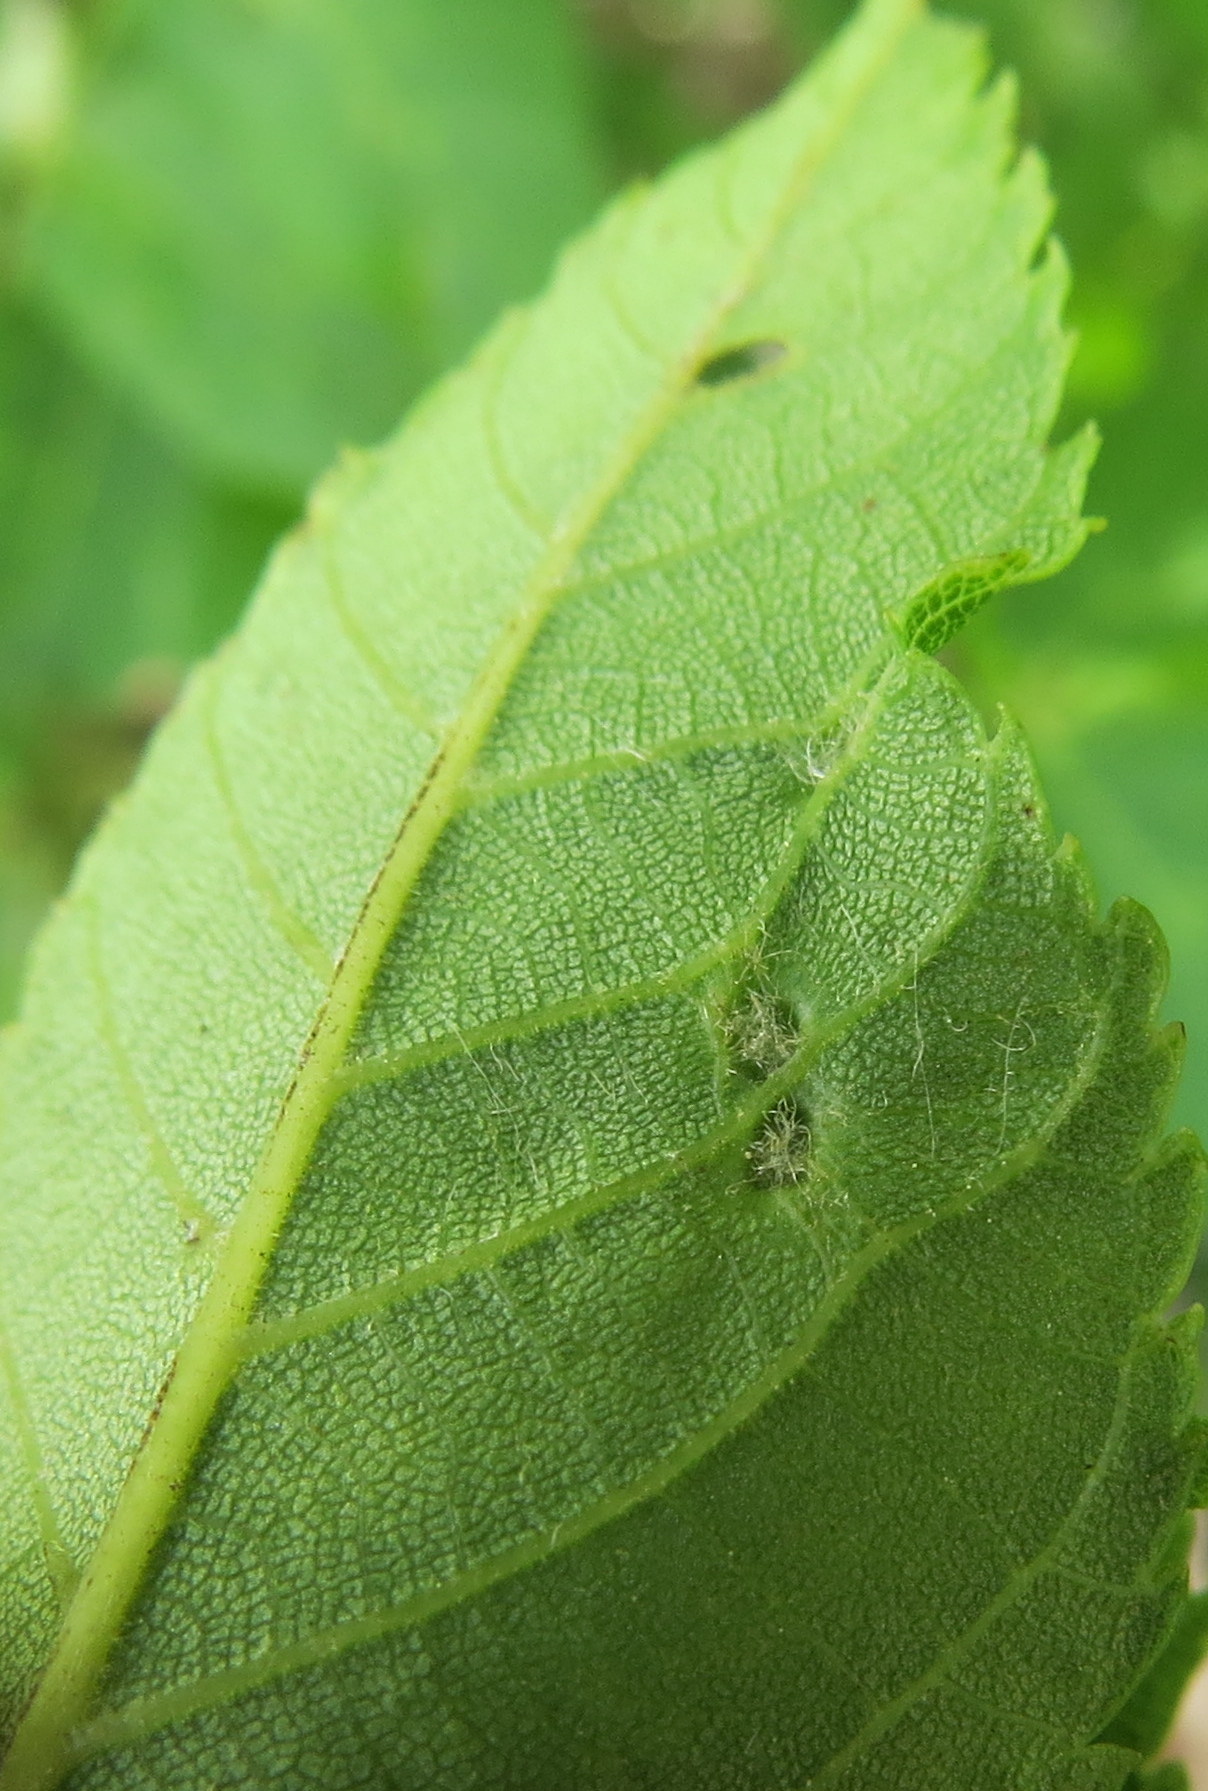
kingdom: Plantae
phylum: Tracheophyta
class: Magnoliopsida
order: Fagales
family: Juglandaceae
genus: Juglans
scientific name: Juglans nigra
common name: Black walnut
